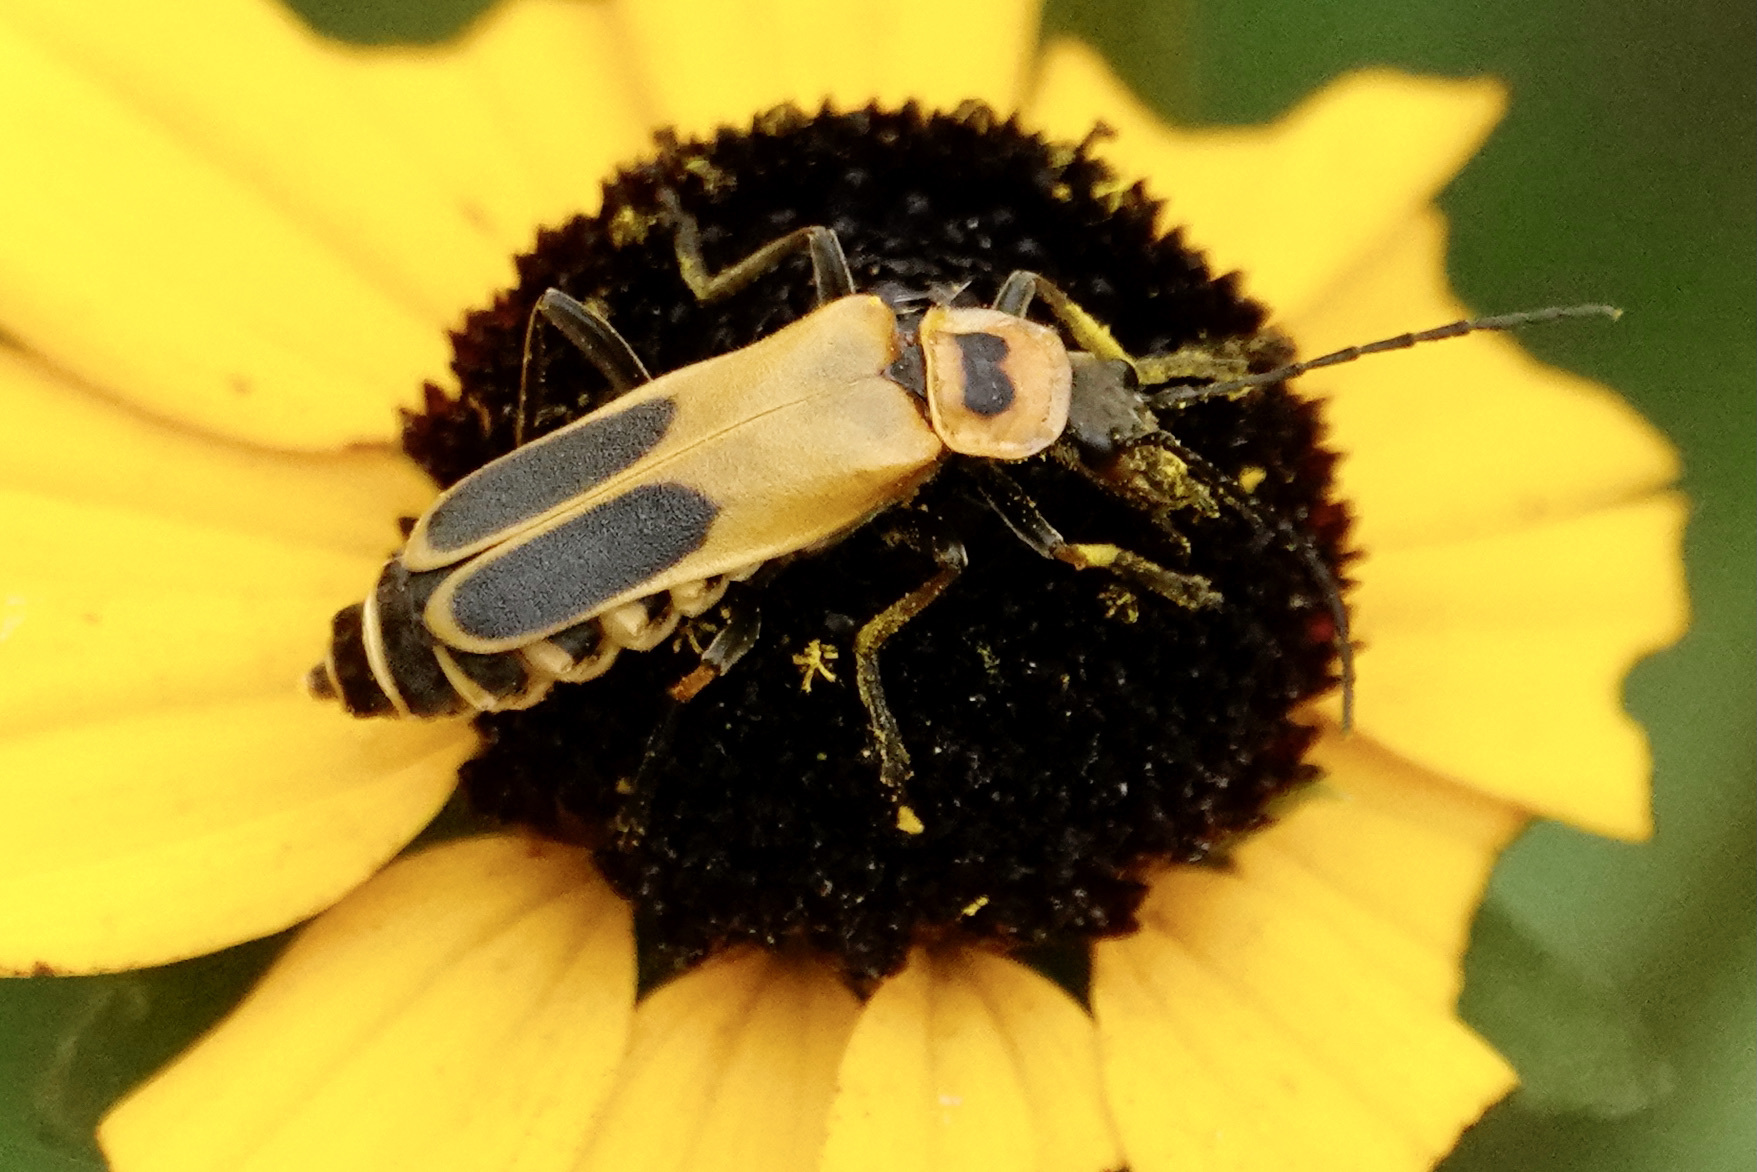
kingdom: Animalia
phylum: Arthropoda
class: Insecta
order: Coleoptera
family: Cantharidae
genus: Chauliognathus
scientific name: Chauliognathus pensylvanicus
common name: Goldenrod soldier beetle
